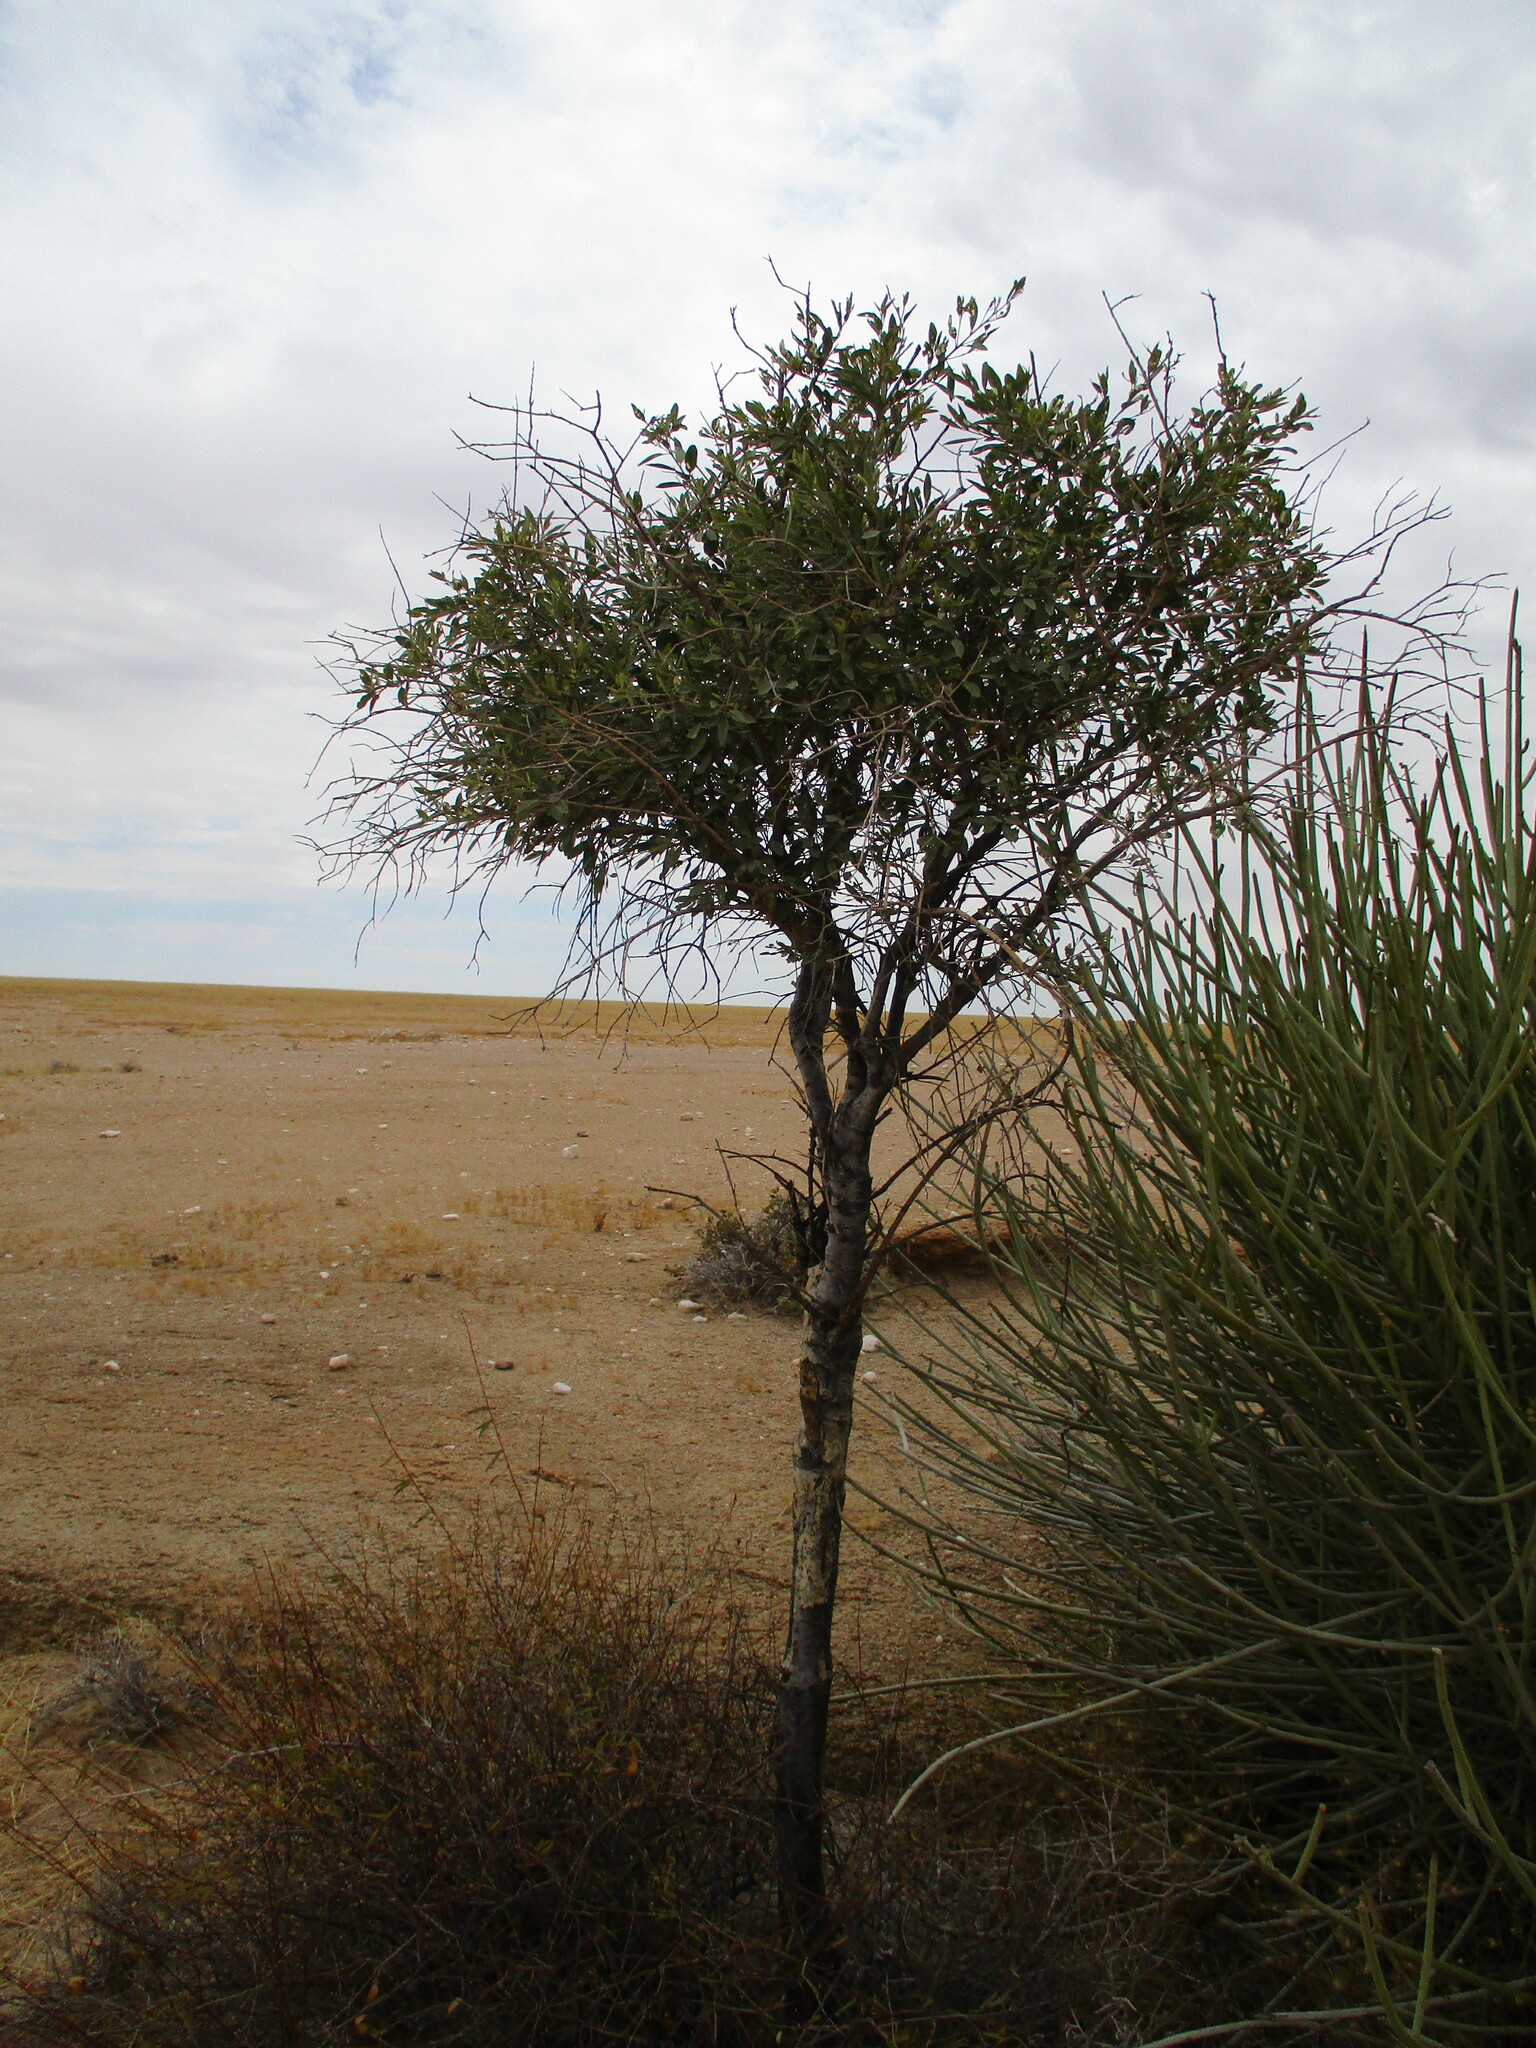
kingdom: Plantae
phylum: Tracheophyta
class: Magnoliopsida
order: Brassicales
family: Capparaceae
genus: Maerua
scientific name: Maerua schinzii
